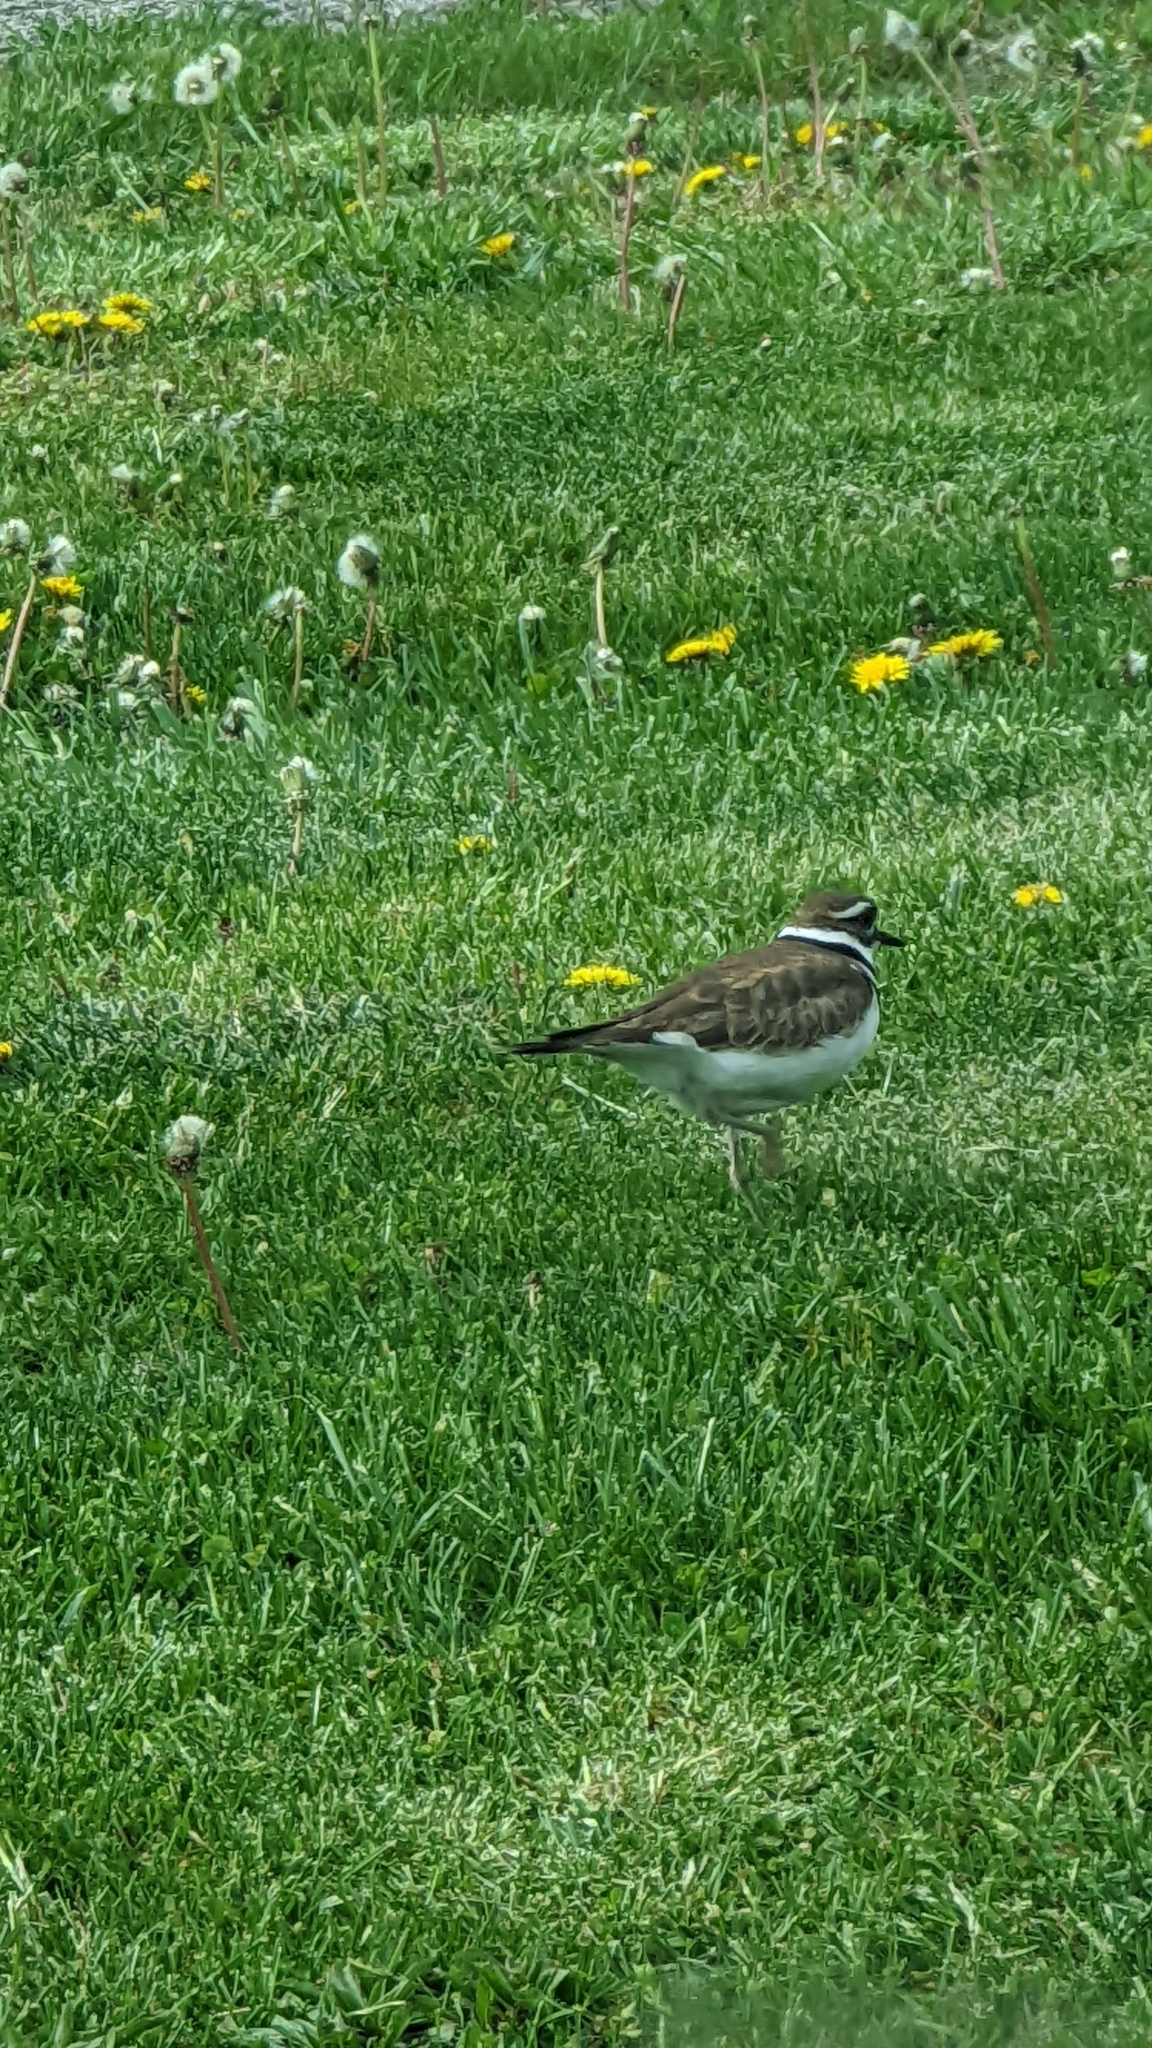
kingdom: Animalia
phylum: Chordata
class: Aves
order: Charadriiformes
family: Charadriidae
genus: Charadrius
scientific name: Charadrius vociferus
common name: Killdeer
